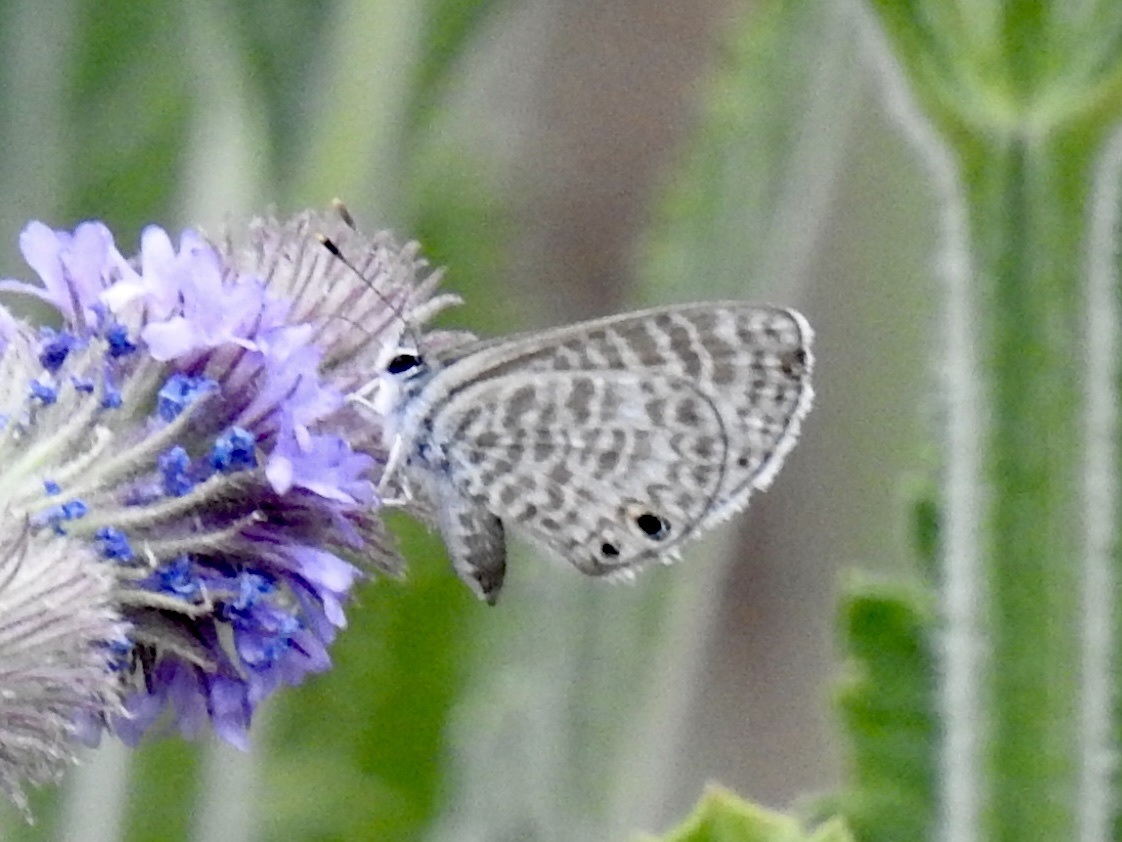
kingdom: Animalia
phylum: Arthropoda
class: Insecta
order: Lepidoptera
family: Lycaenidae
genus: Leptotes
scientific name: Leptotes marina
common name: Marine blue
